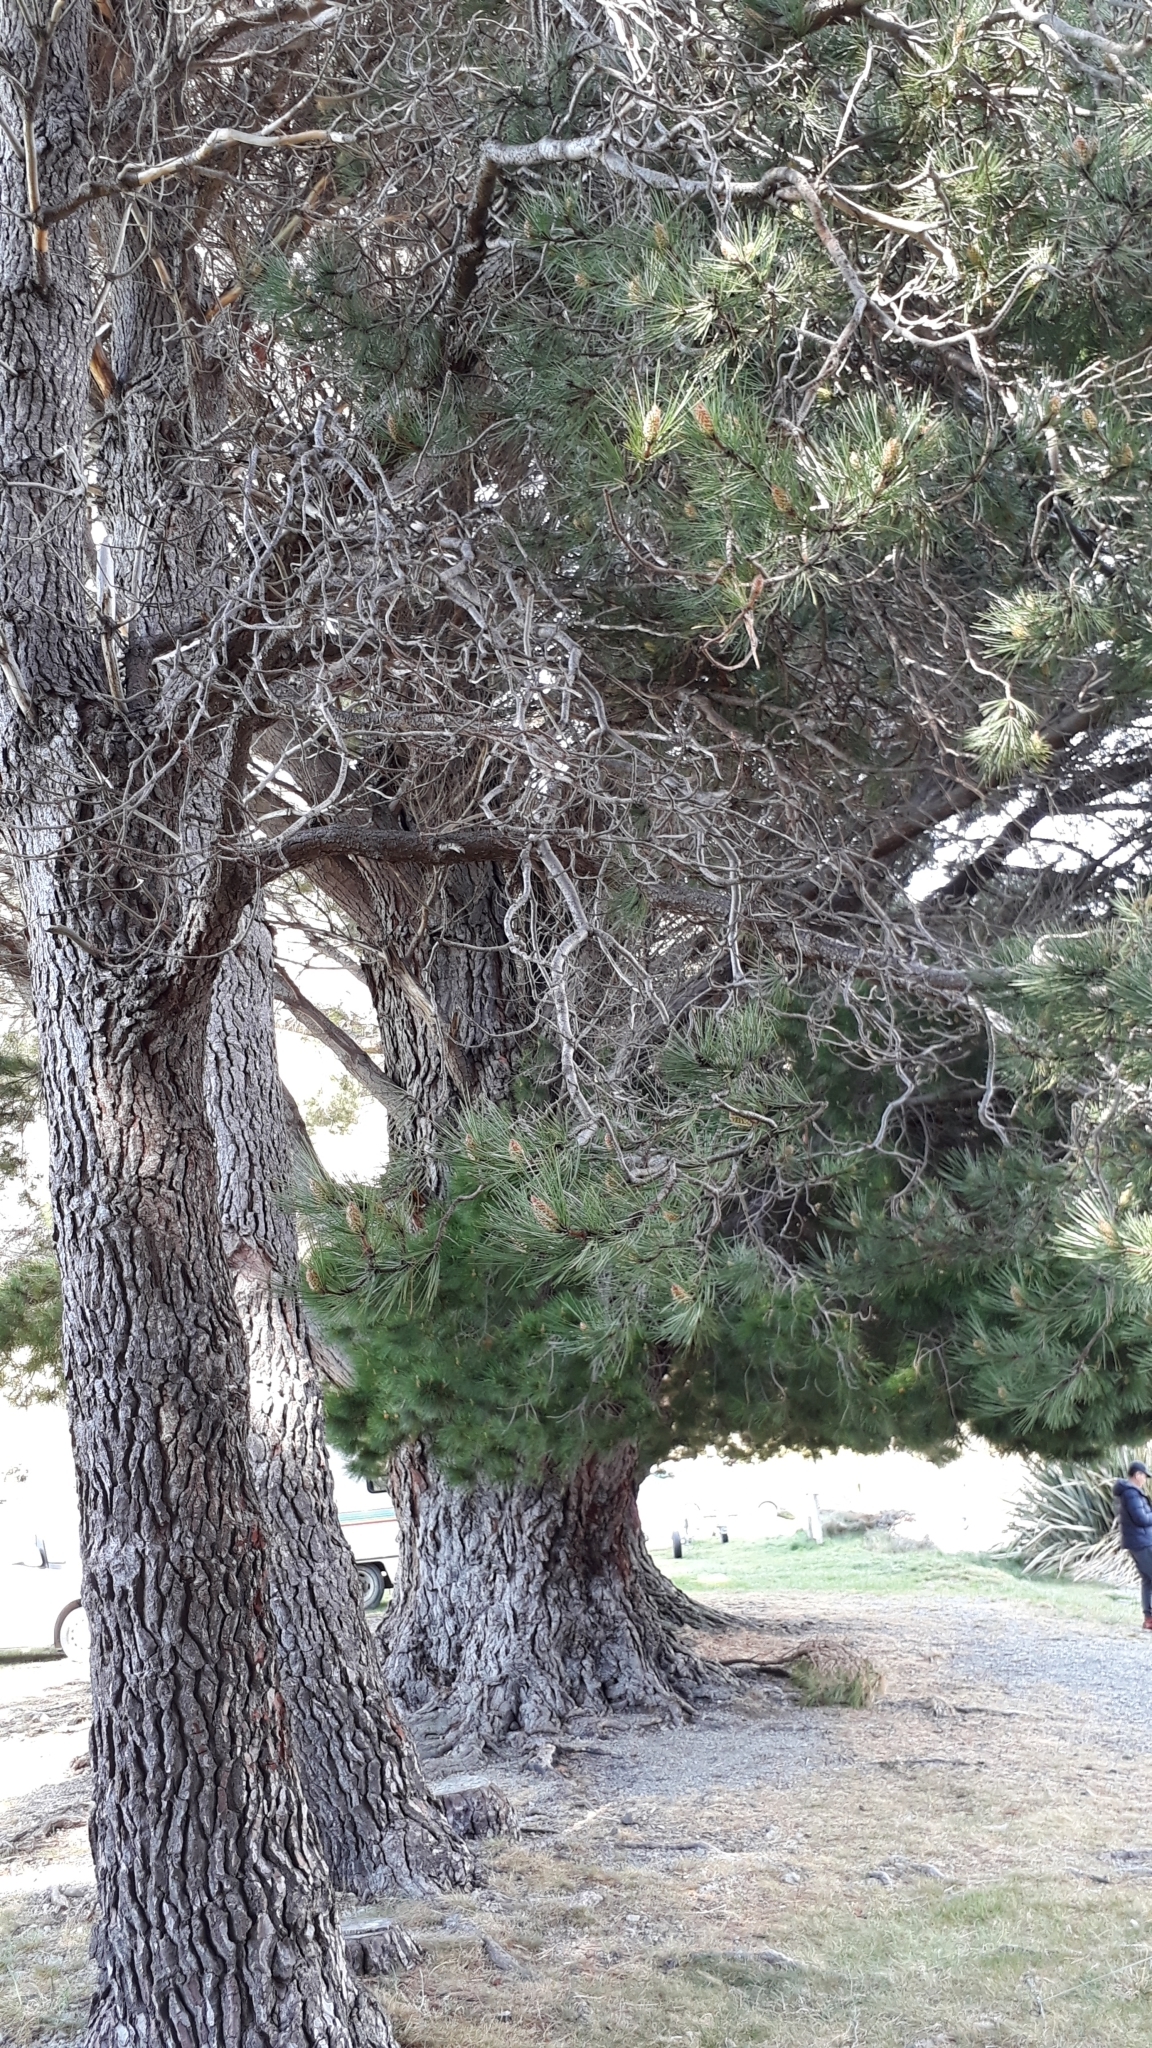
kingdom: Plantae
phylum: Tracheophyta
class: Pinopsida
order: Pinales
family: Pinaceae
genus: Pinus
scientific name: Pinus pinaster
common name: Maritime pine
